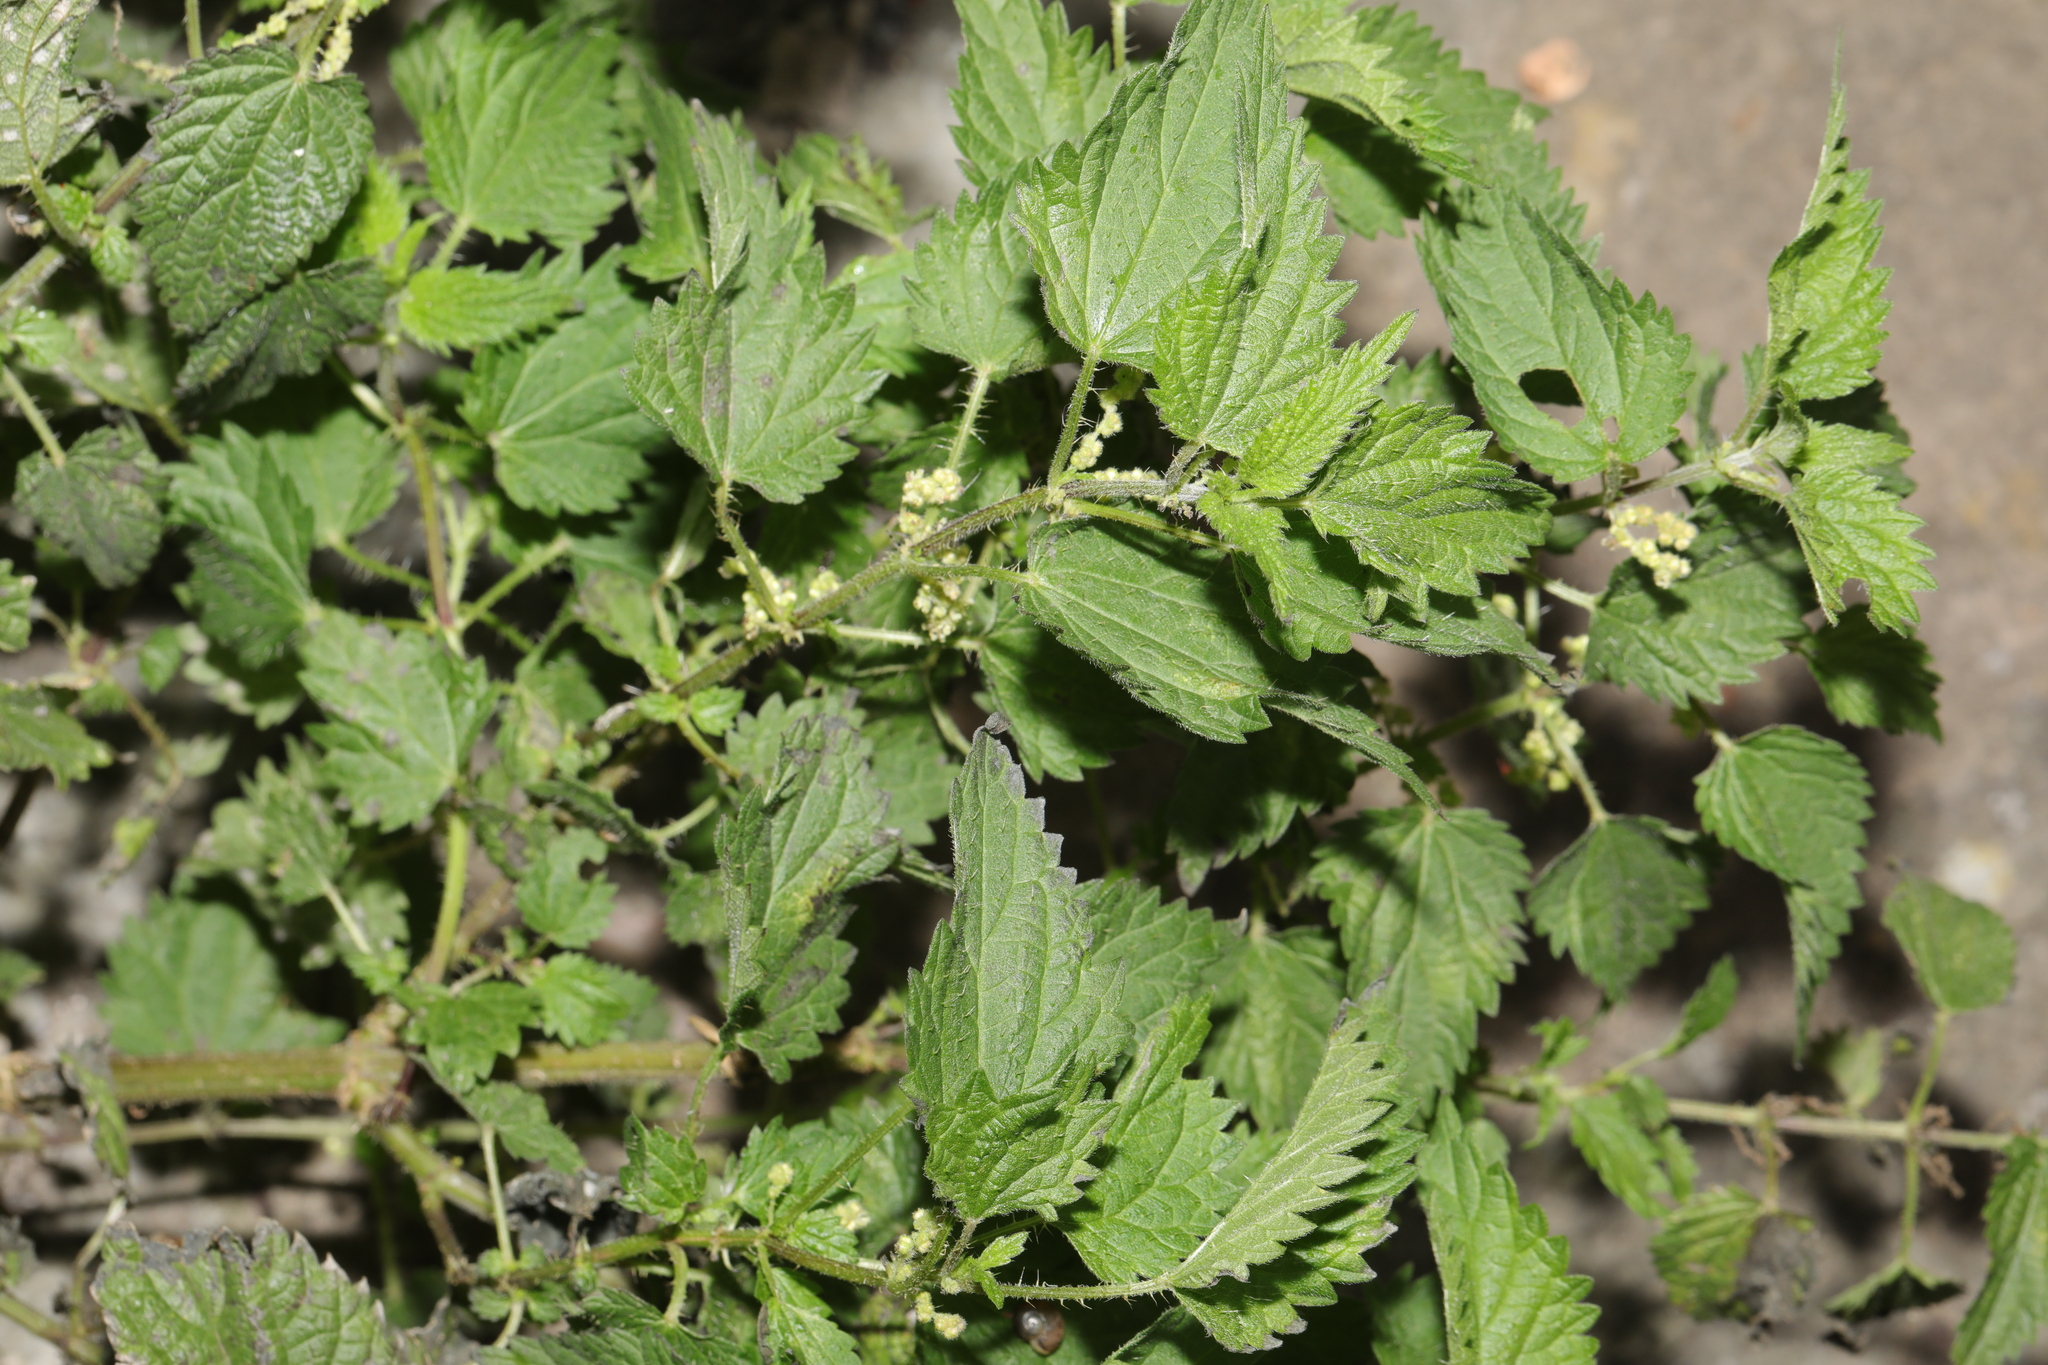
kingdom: Plantae
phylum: Tracheophyta
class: Magnoliopsida
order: Rosales
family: Urticaceae
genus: Urtica
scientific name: Urtica dioica
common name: Common nettle
